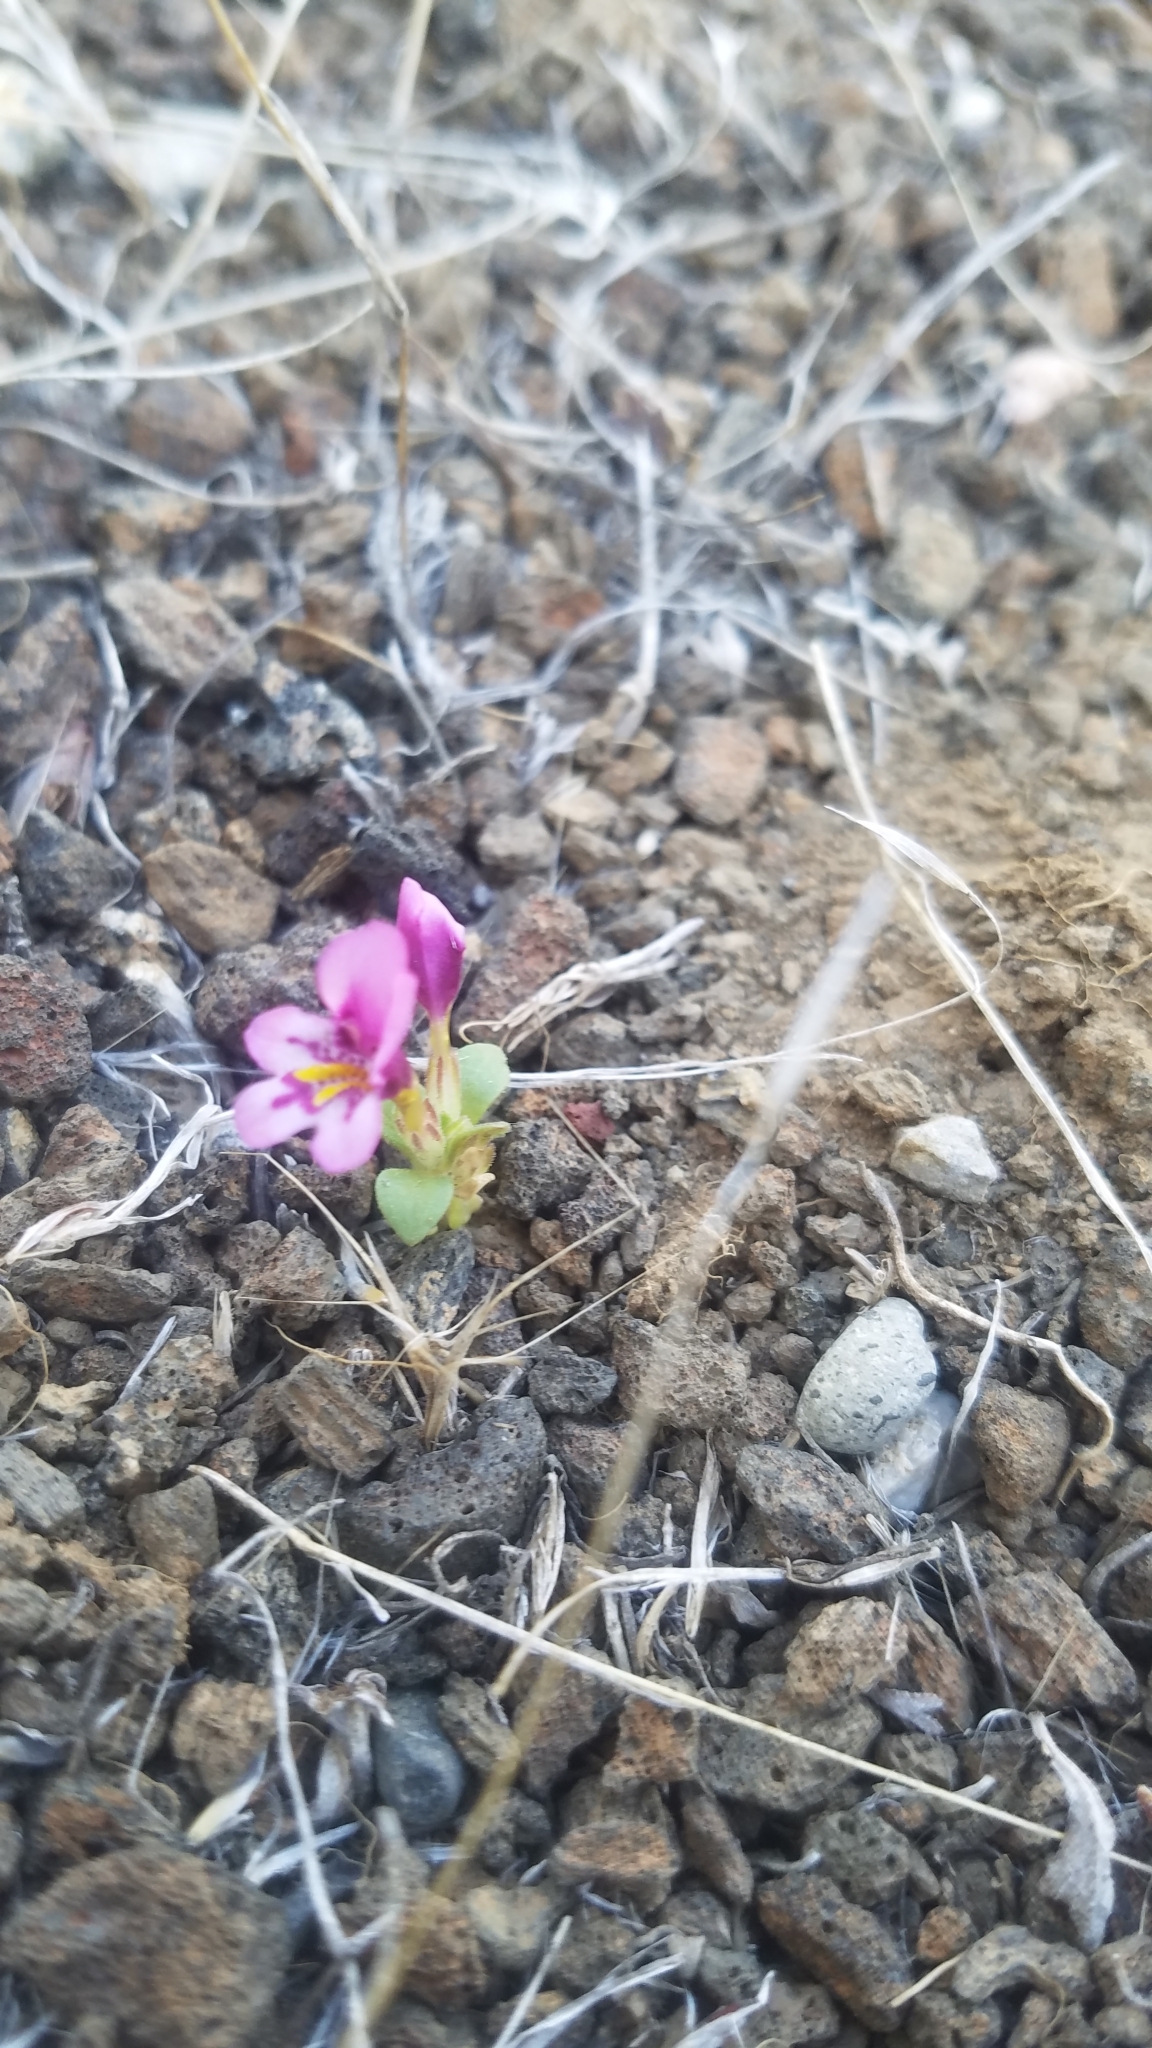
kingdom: Plantae
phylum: Tracheophyta
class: Magnoliopsida
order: Lamiales
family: Phrymaceae
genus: Diplacus
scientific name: Diplacus nanus
